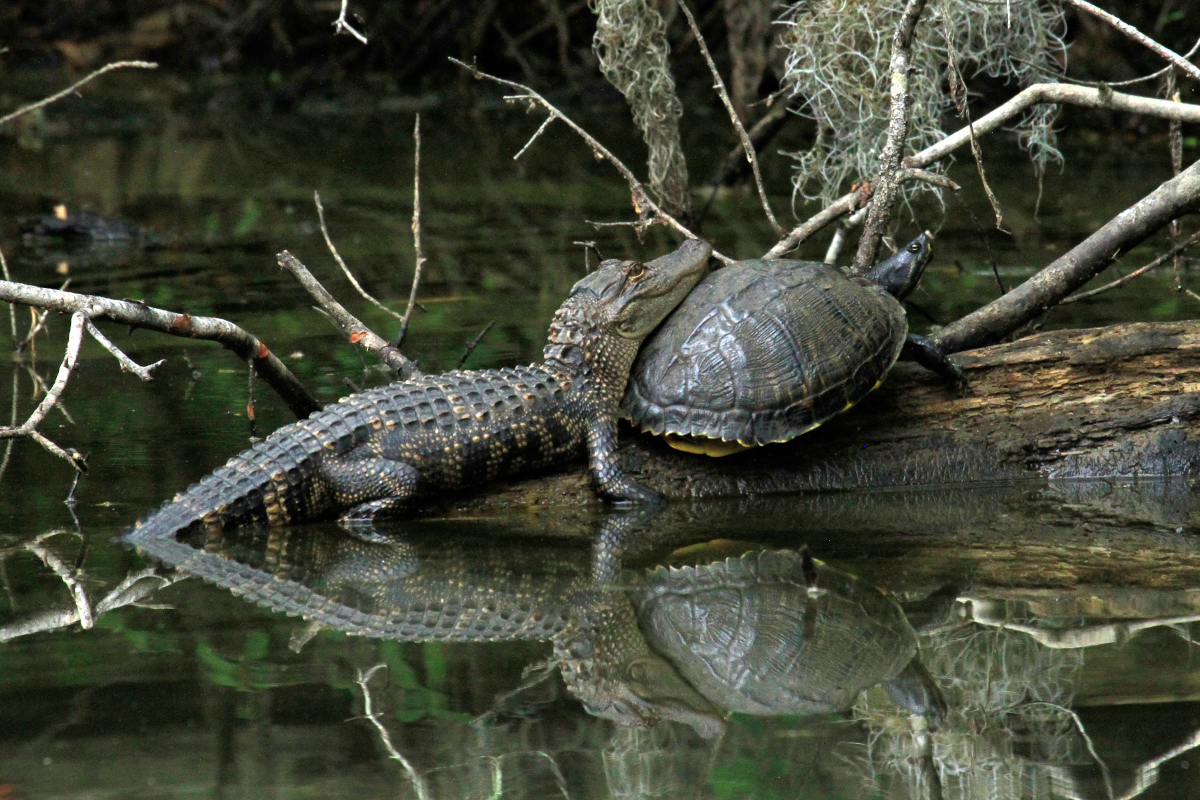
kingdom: Animalia
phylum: Chordata
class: Crocodylia
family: Alligatoridae
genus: Alligator
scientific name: Alligator mississippiensis
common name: American alligator
